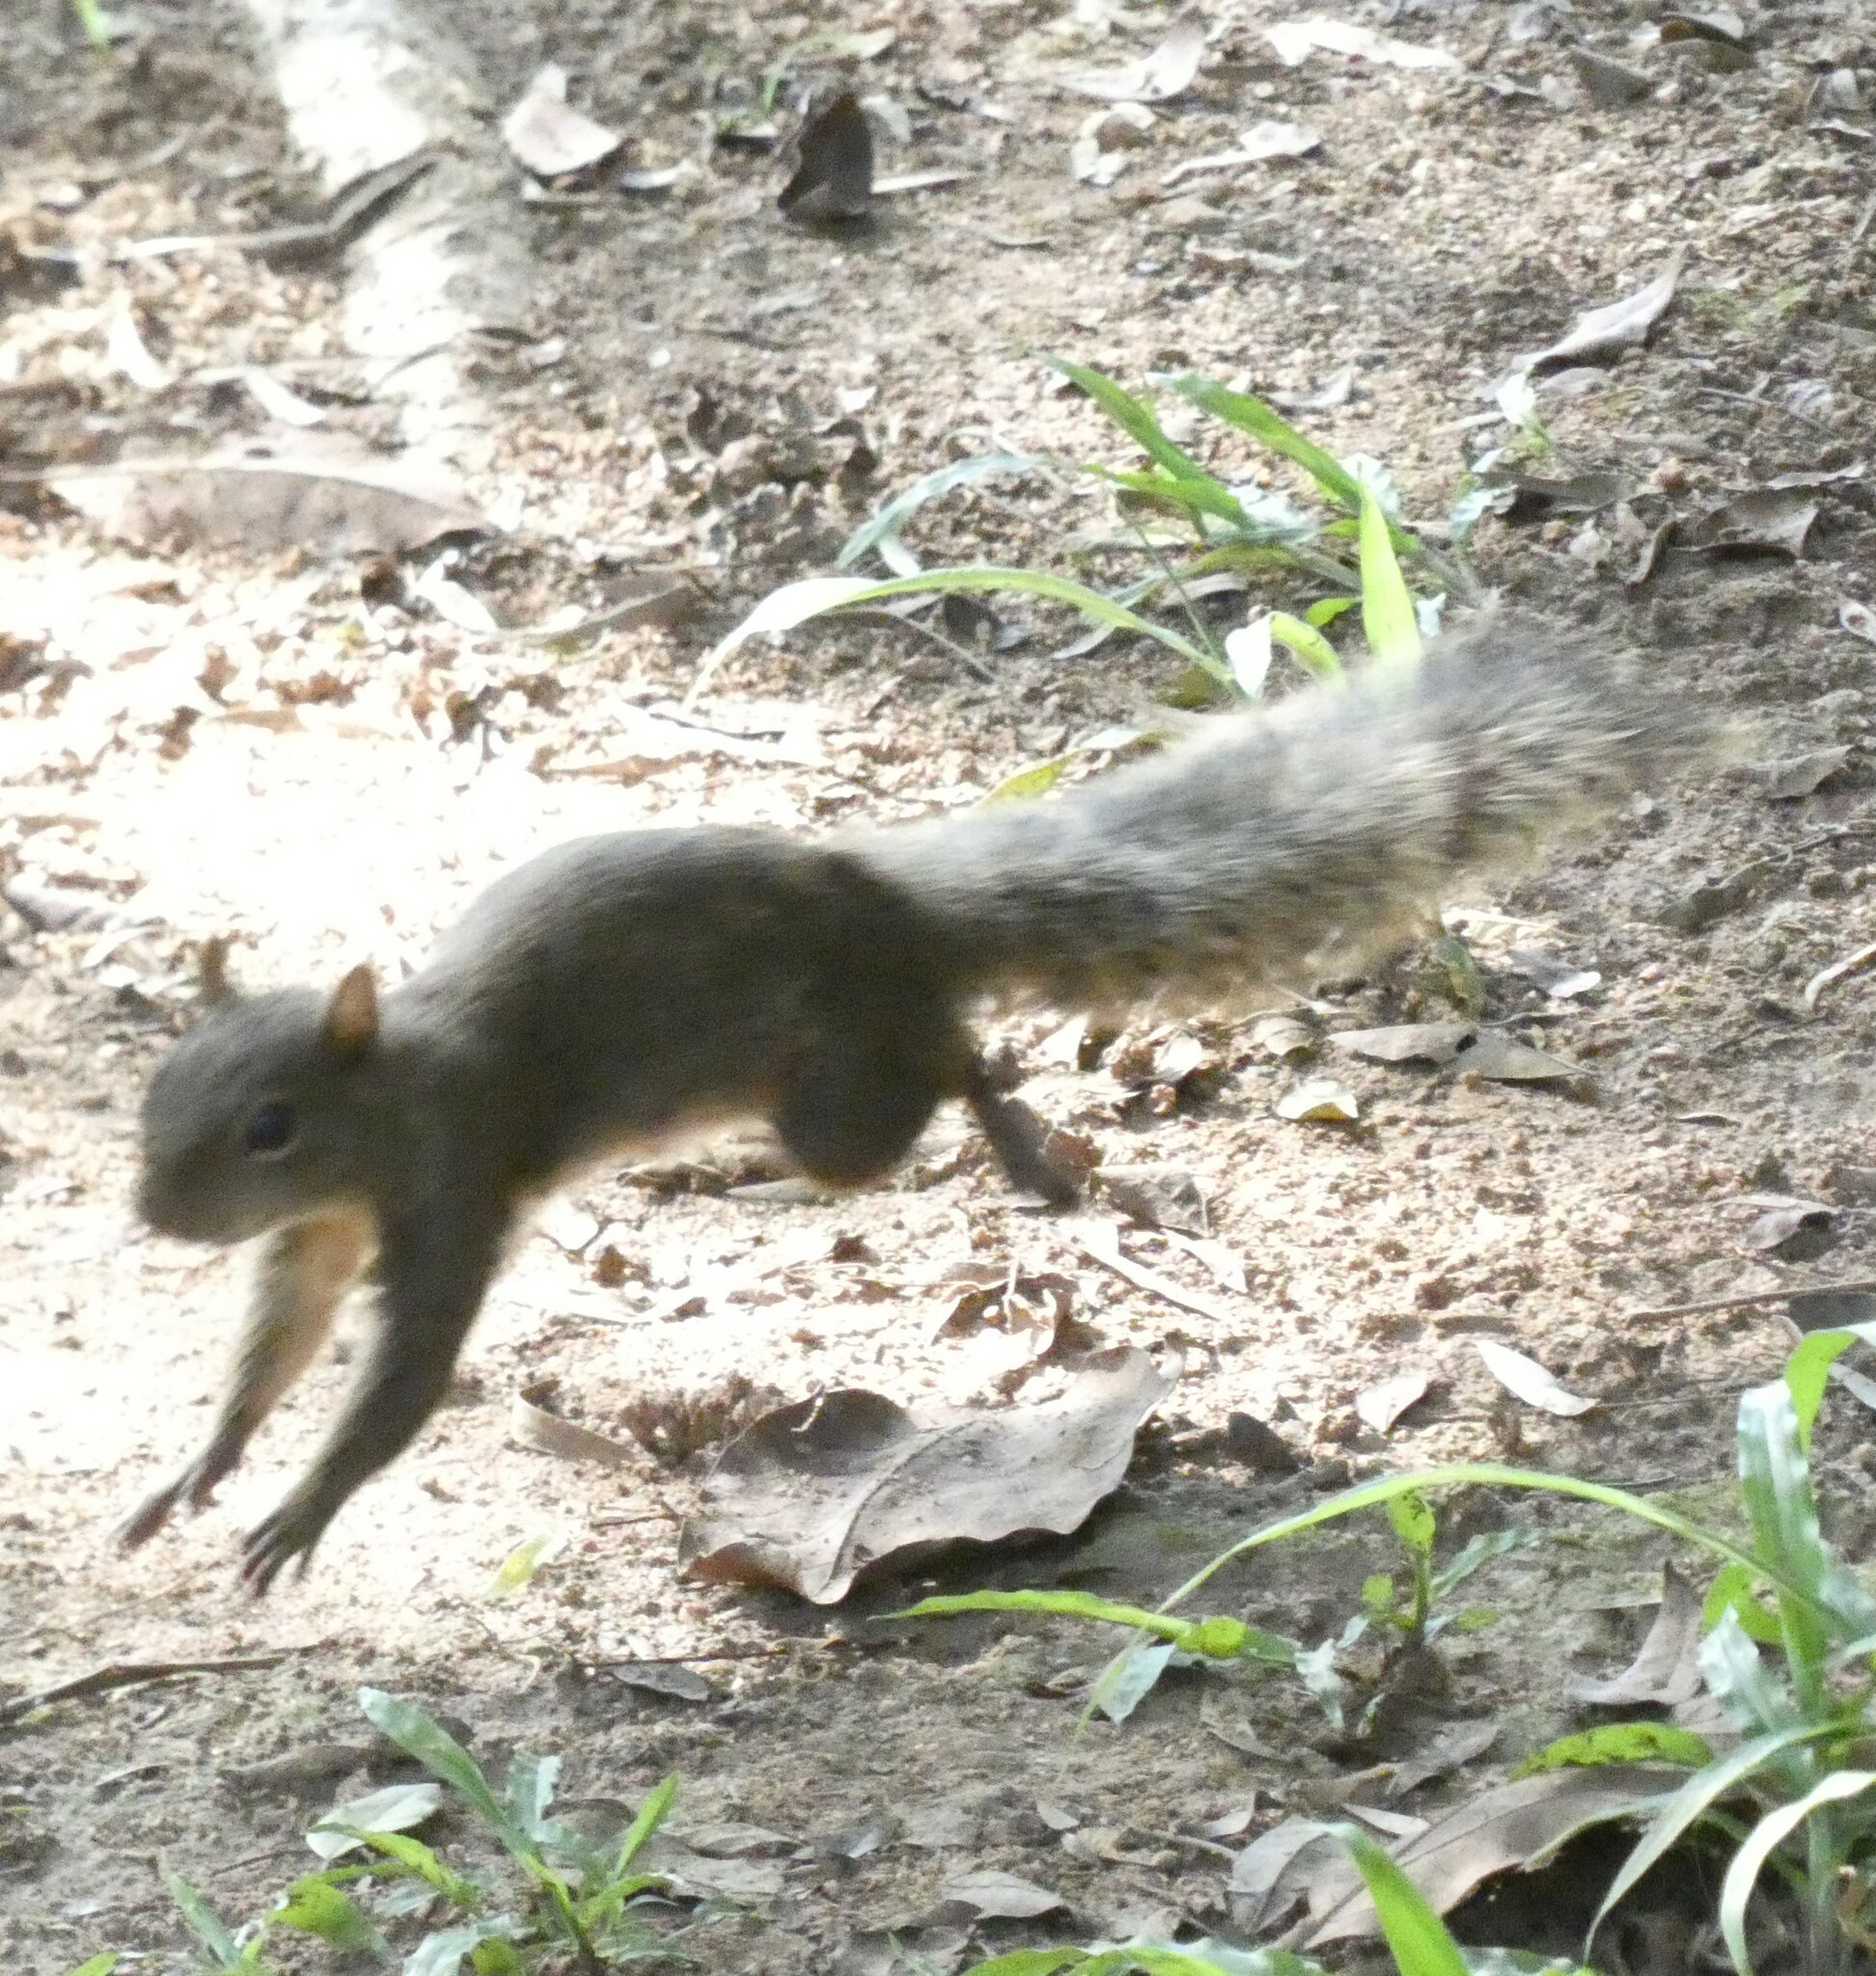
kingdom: Animalia
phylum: Chordata
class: Mammalia
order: Rodentia
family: Sciuridae
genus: Sciurus
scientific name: Sciurus aestuans
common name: Guianan squirrel
